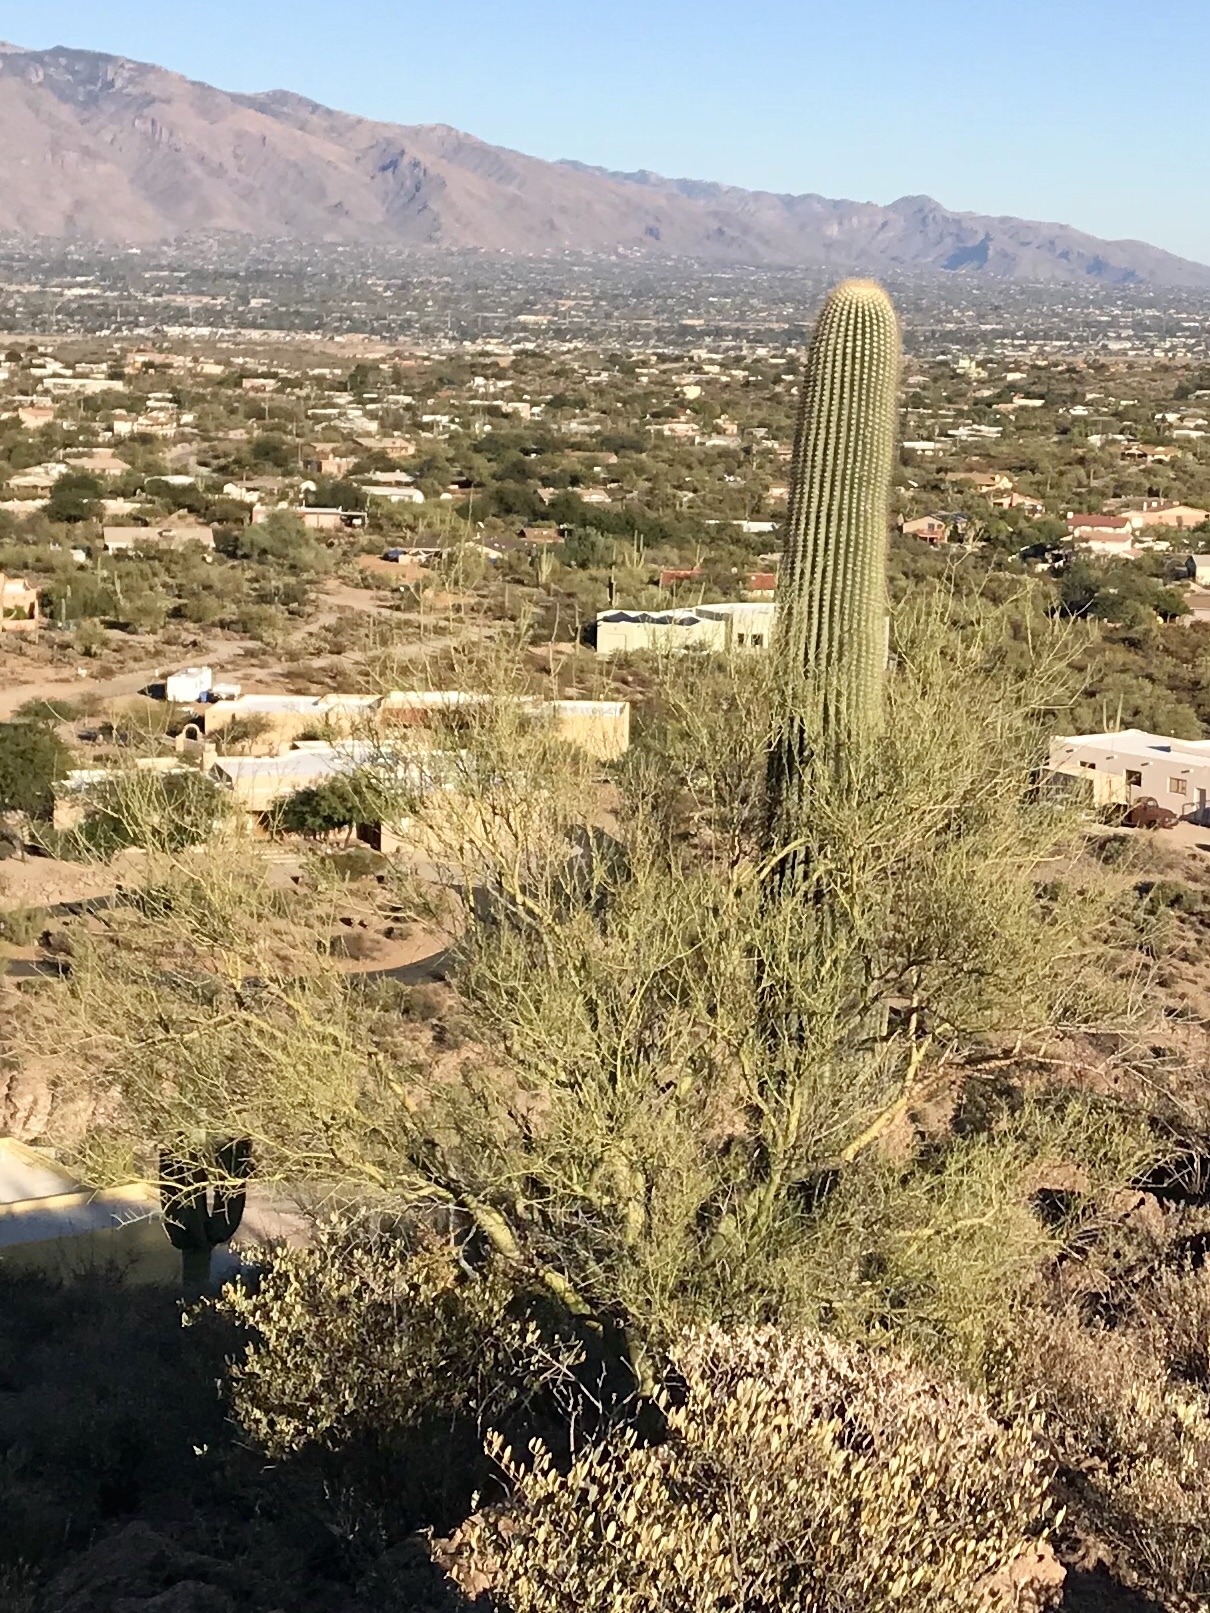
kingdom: Plantae
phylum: Tracheophyta
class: Magnoliopsida
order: Fabales
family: Fabaceae
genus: Parkinsonia
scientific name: Parkinsonia microphylla
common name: Yellow paloverde
